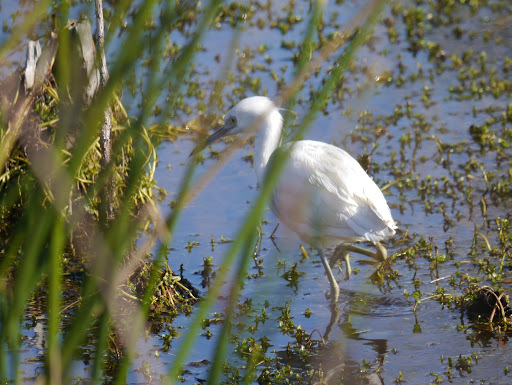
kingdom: Animalia
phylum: Chordata
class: Aves
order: Pelecaniformes
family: Ardeidae
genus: Egretta
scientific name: Egretta caerulea
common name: Little blue heron
